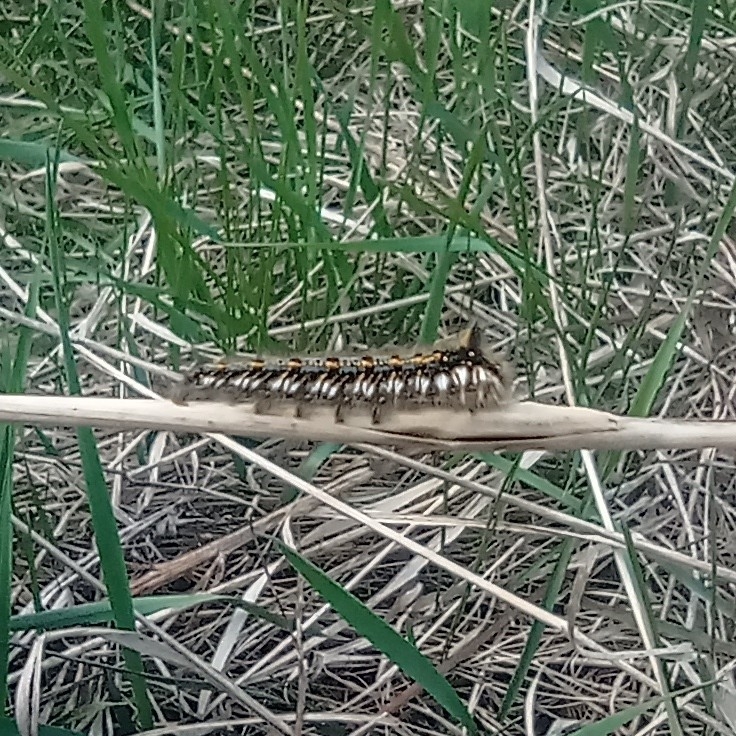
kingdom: Animalia
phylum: Arthropoda
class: Insecta
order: Lepidoptera
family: Lasiocampidae
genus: Euthrix
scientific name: Euthrix potatoria
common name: Drinker
